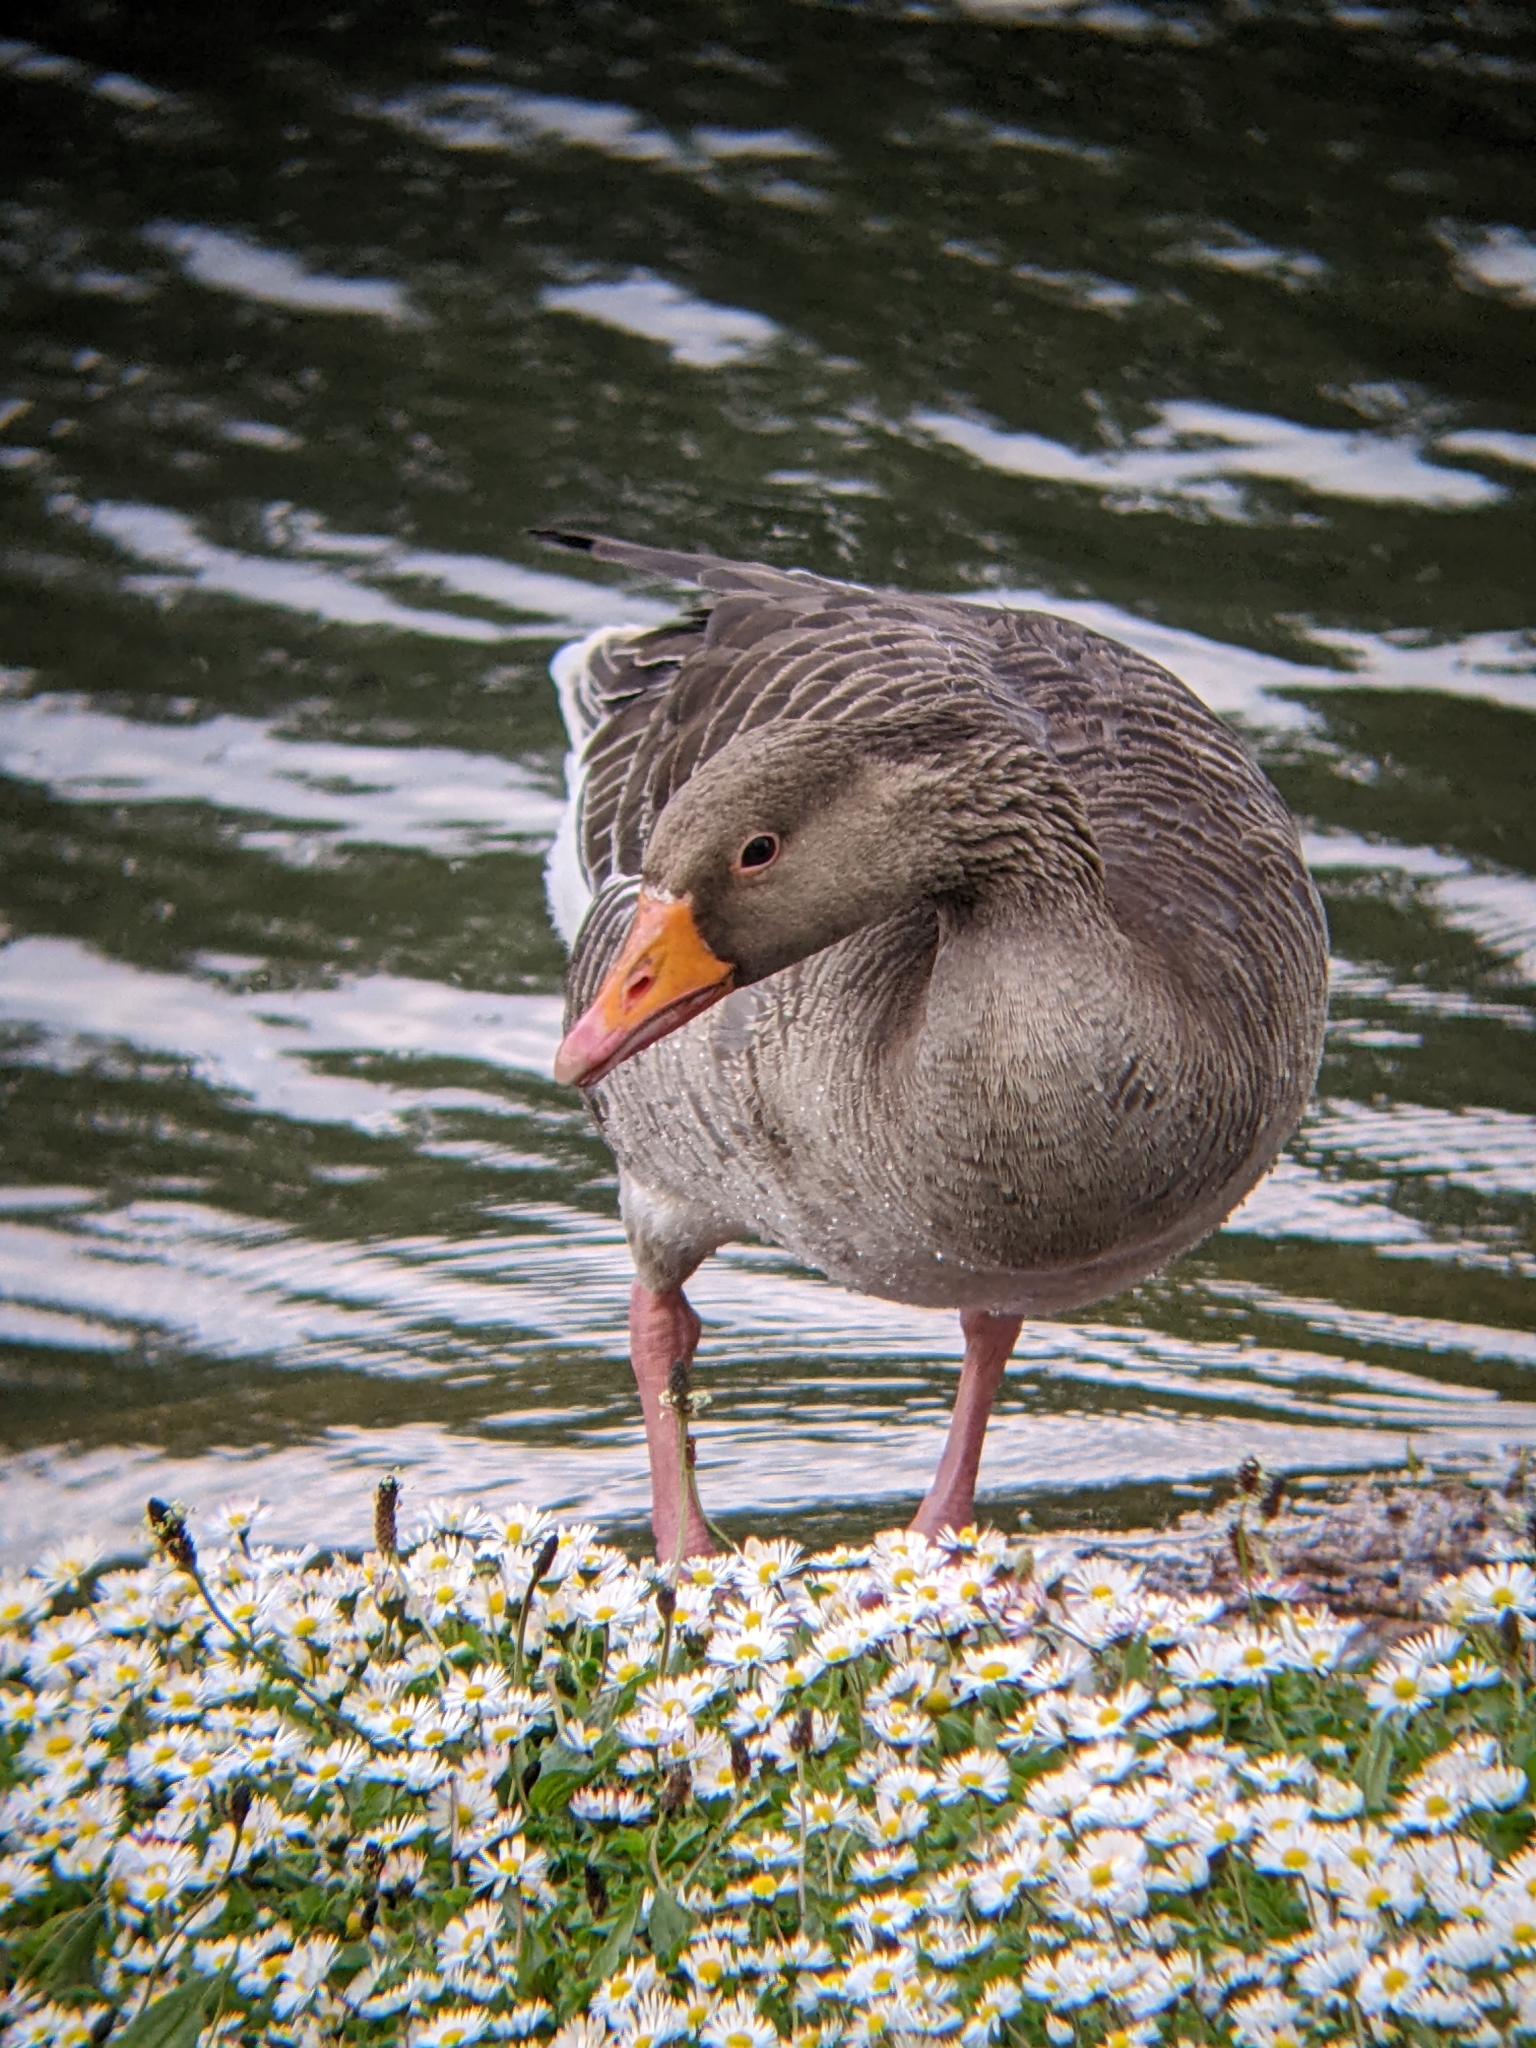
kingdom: Animalia
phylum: Chordata
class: Aves
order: Anseriformes
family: Anatidae
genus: Anser
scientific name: Anser anser
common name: Greylag goose
